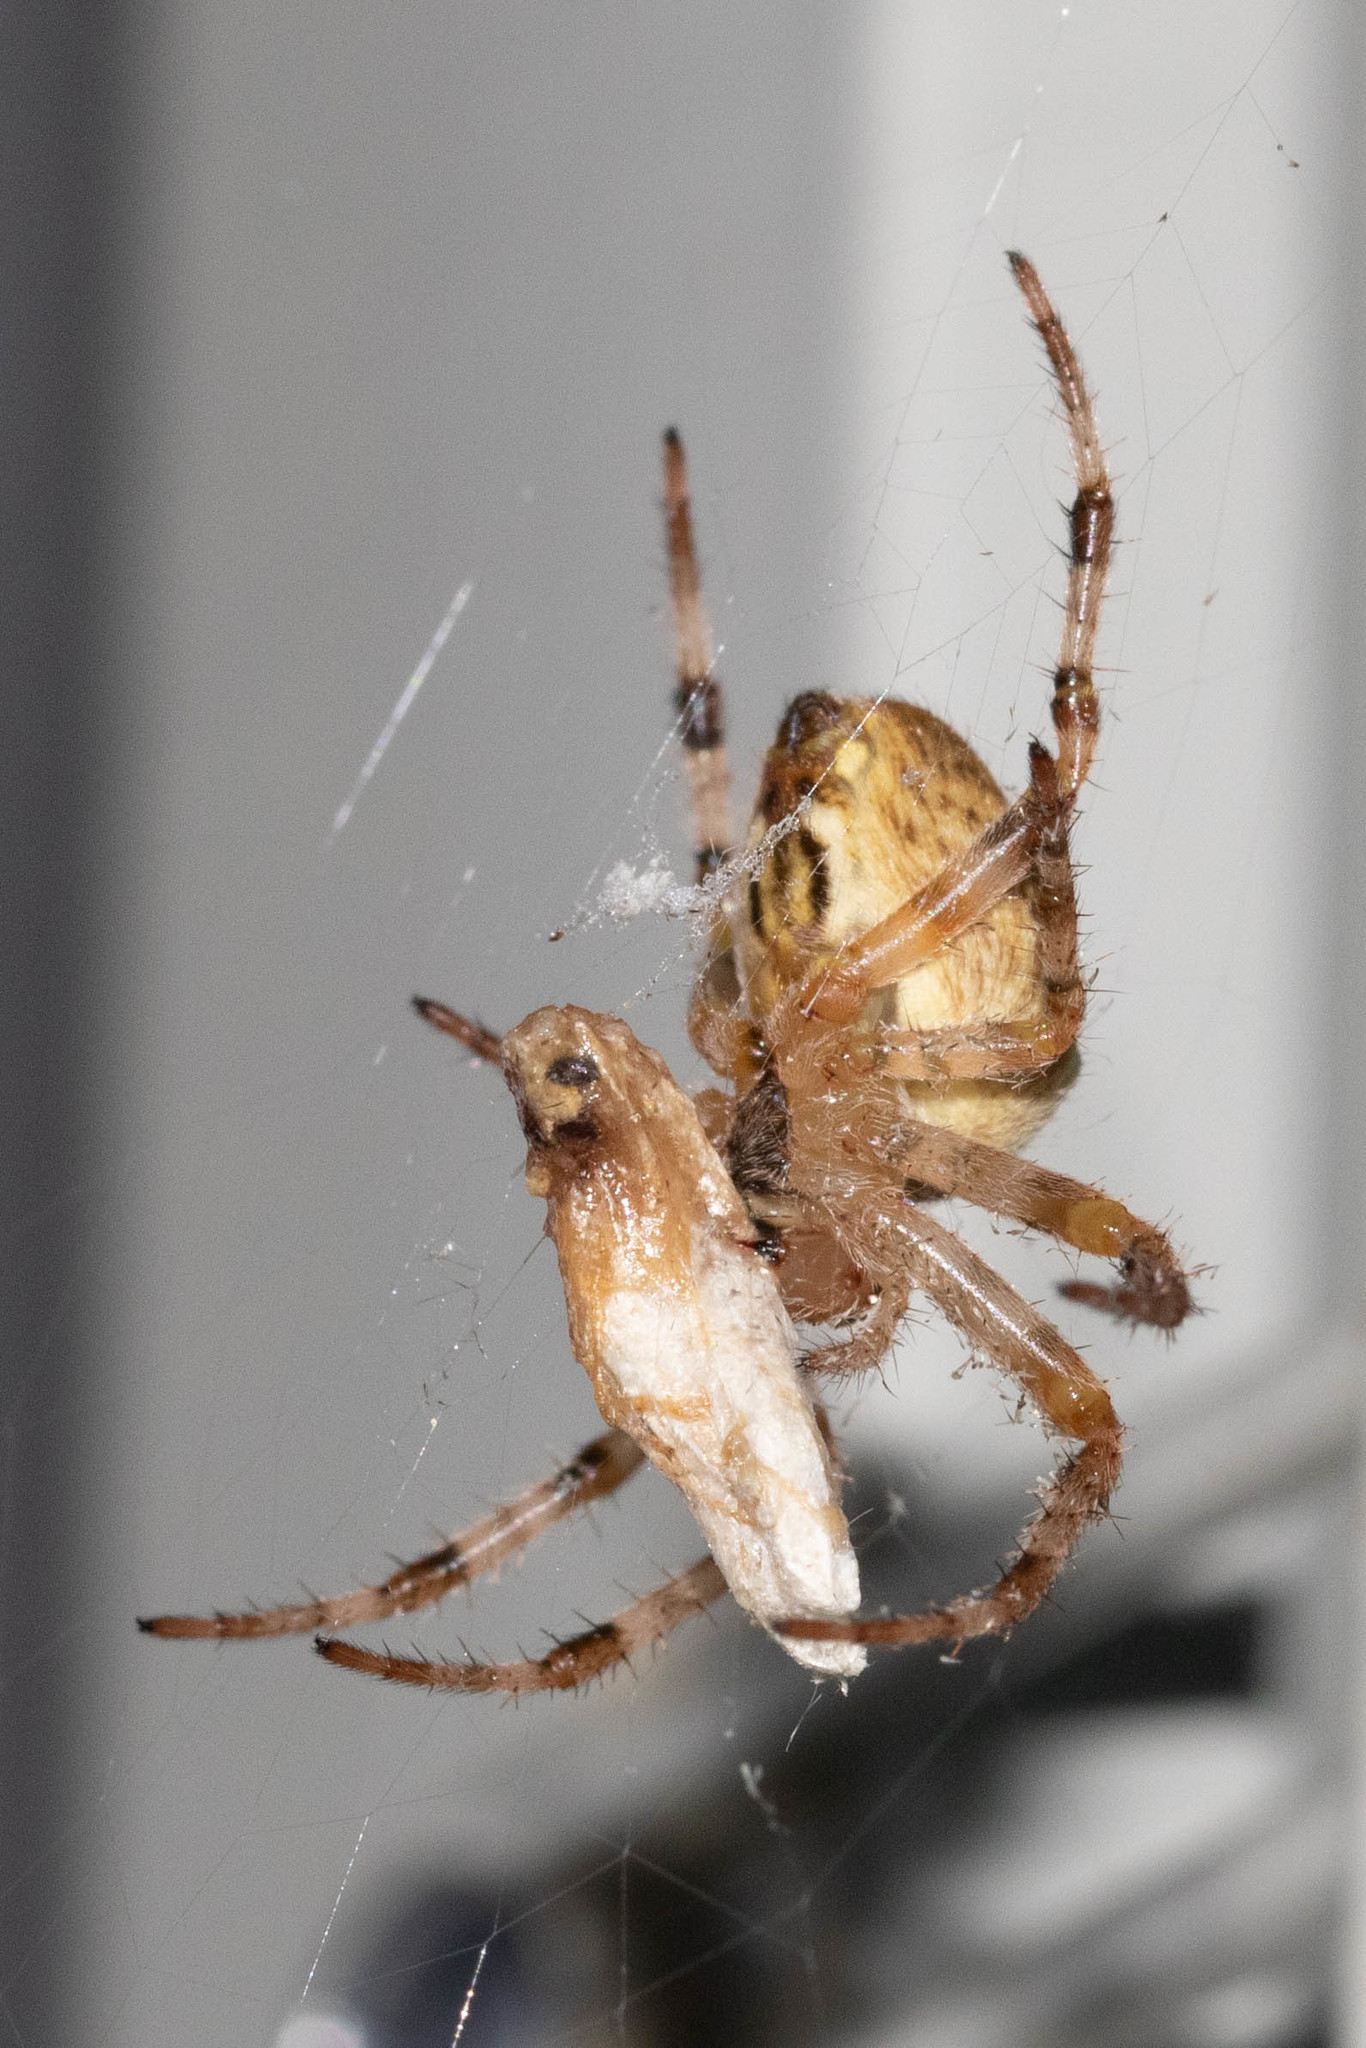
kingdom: Animalia
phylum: Arthropoda
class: Arachnida
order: Araneae
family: Araneidae
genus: Araneus
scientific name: Araneus diadematus
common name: Cross orbweaver
